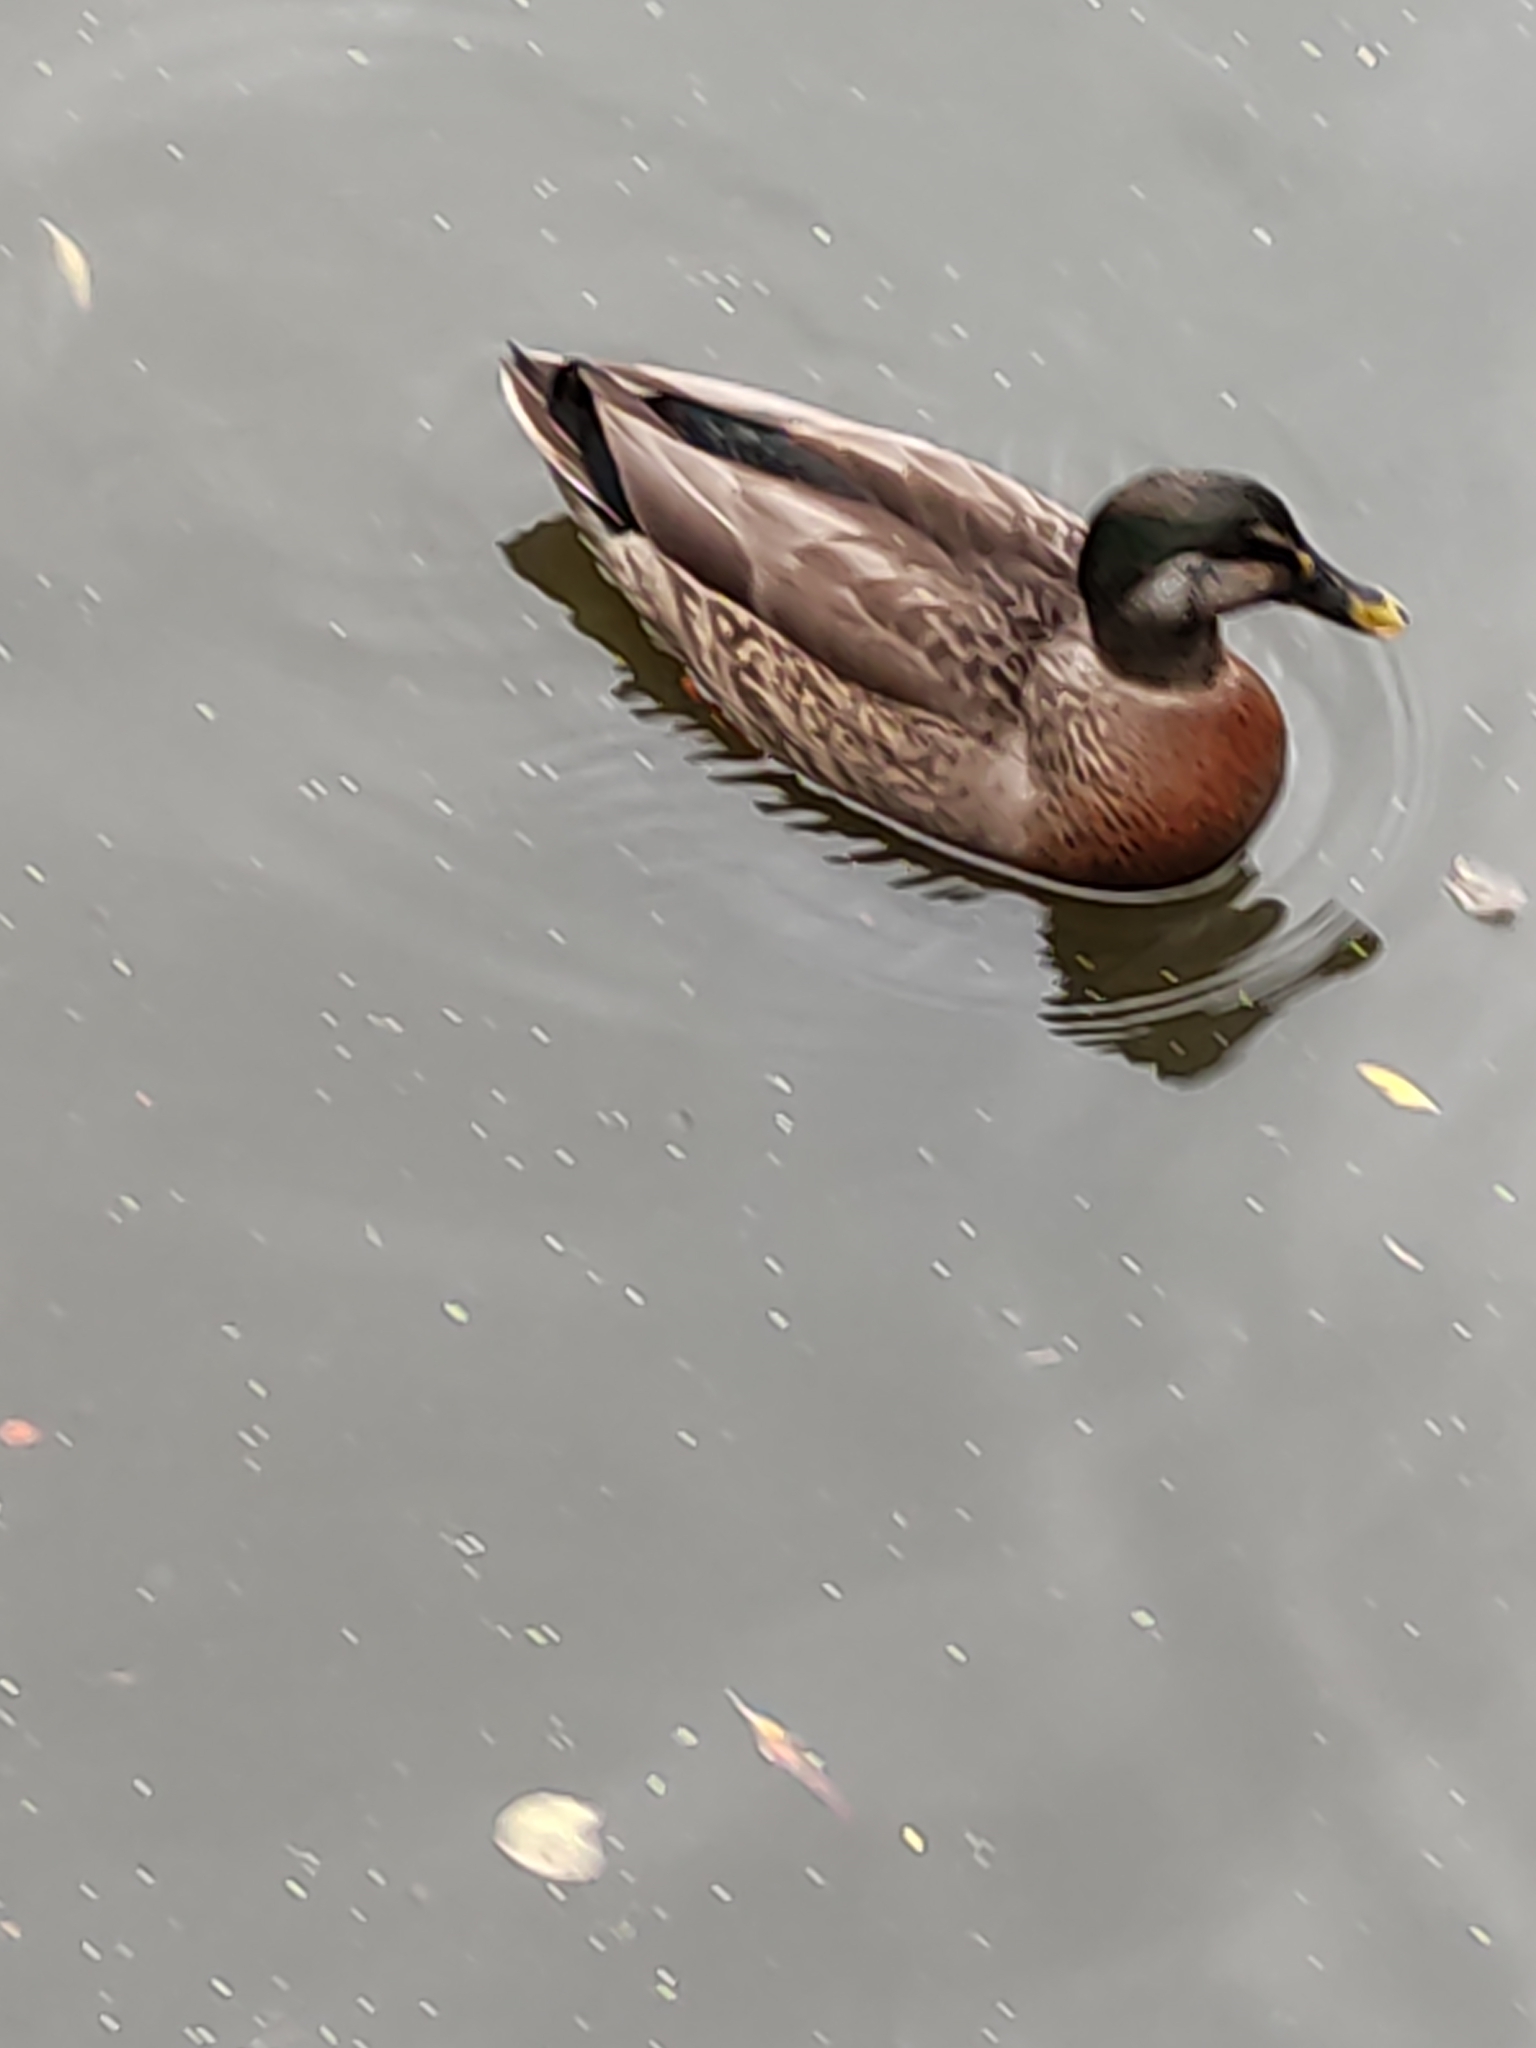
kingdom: Animalia
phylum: Chordata
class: Aves
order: Anseriformes
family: Anatidae
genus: Anas
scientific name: Anas platyrhynchos
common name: Mallard
